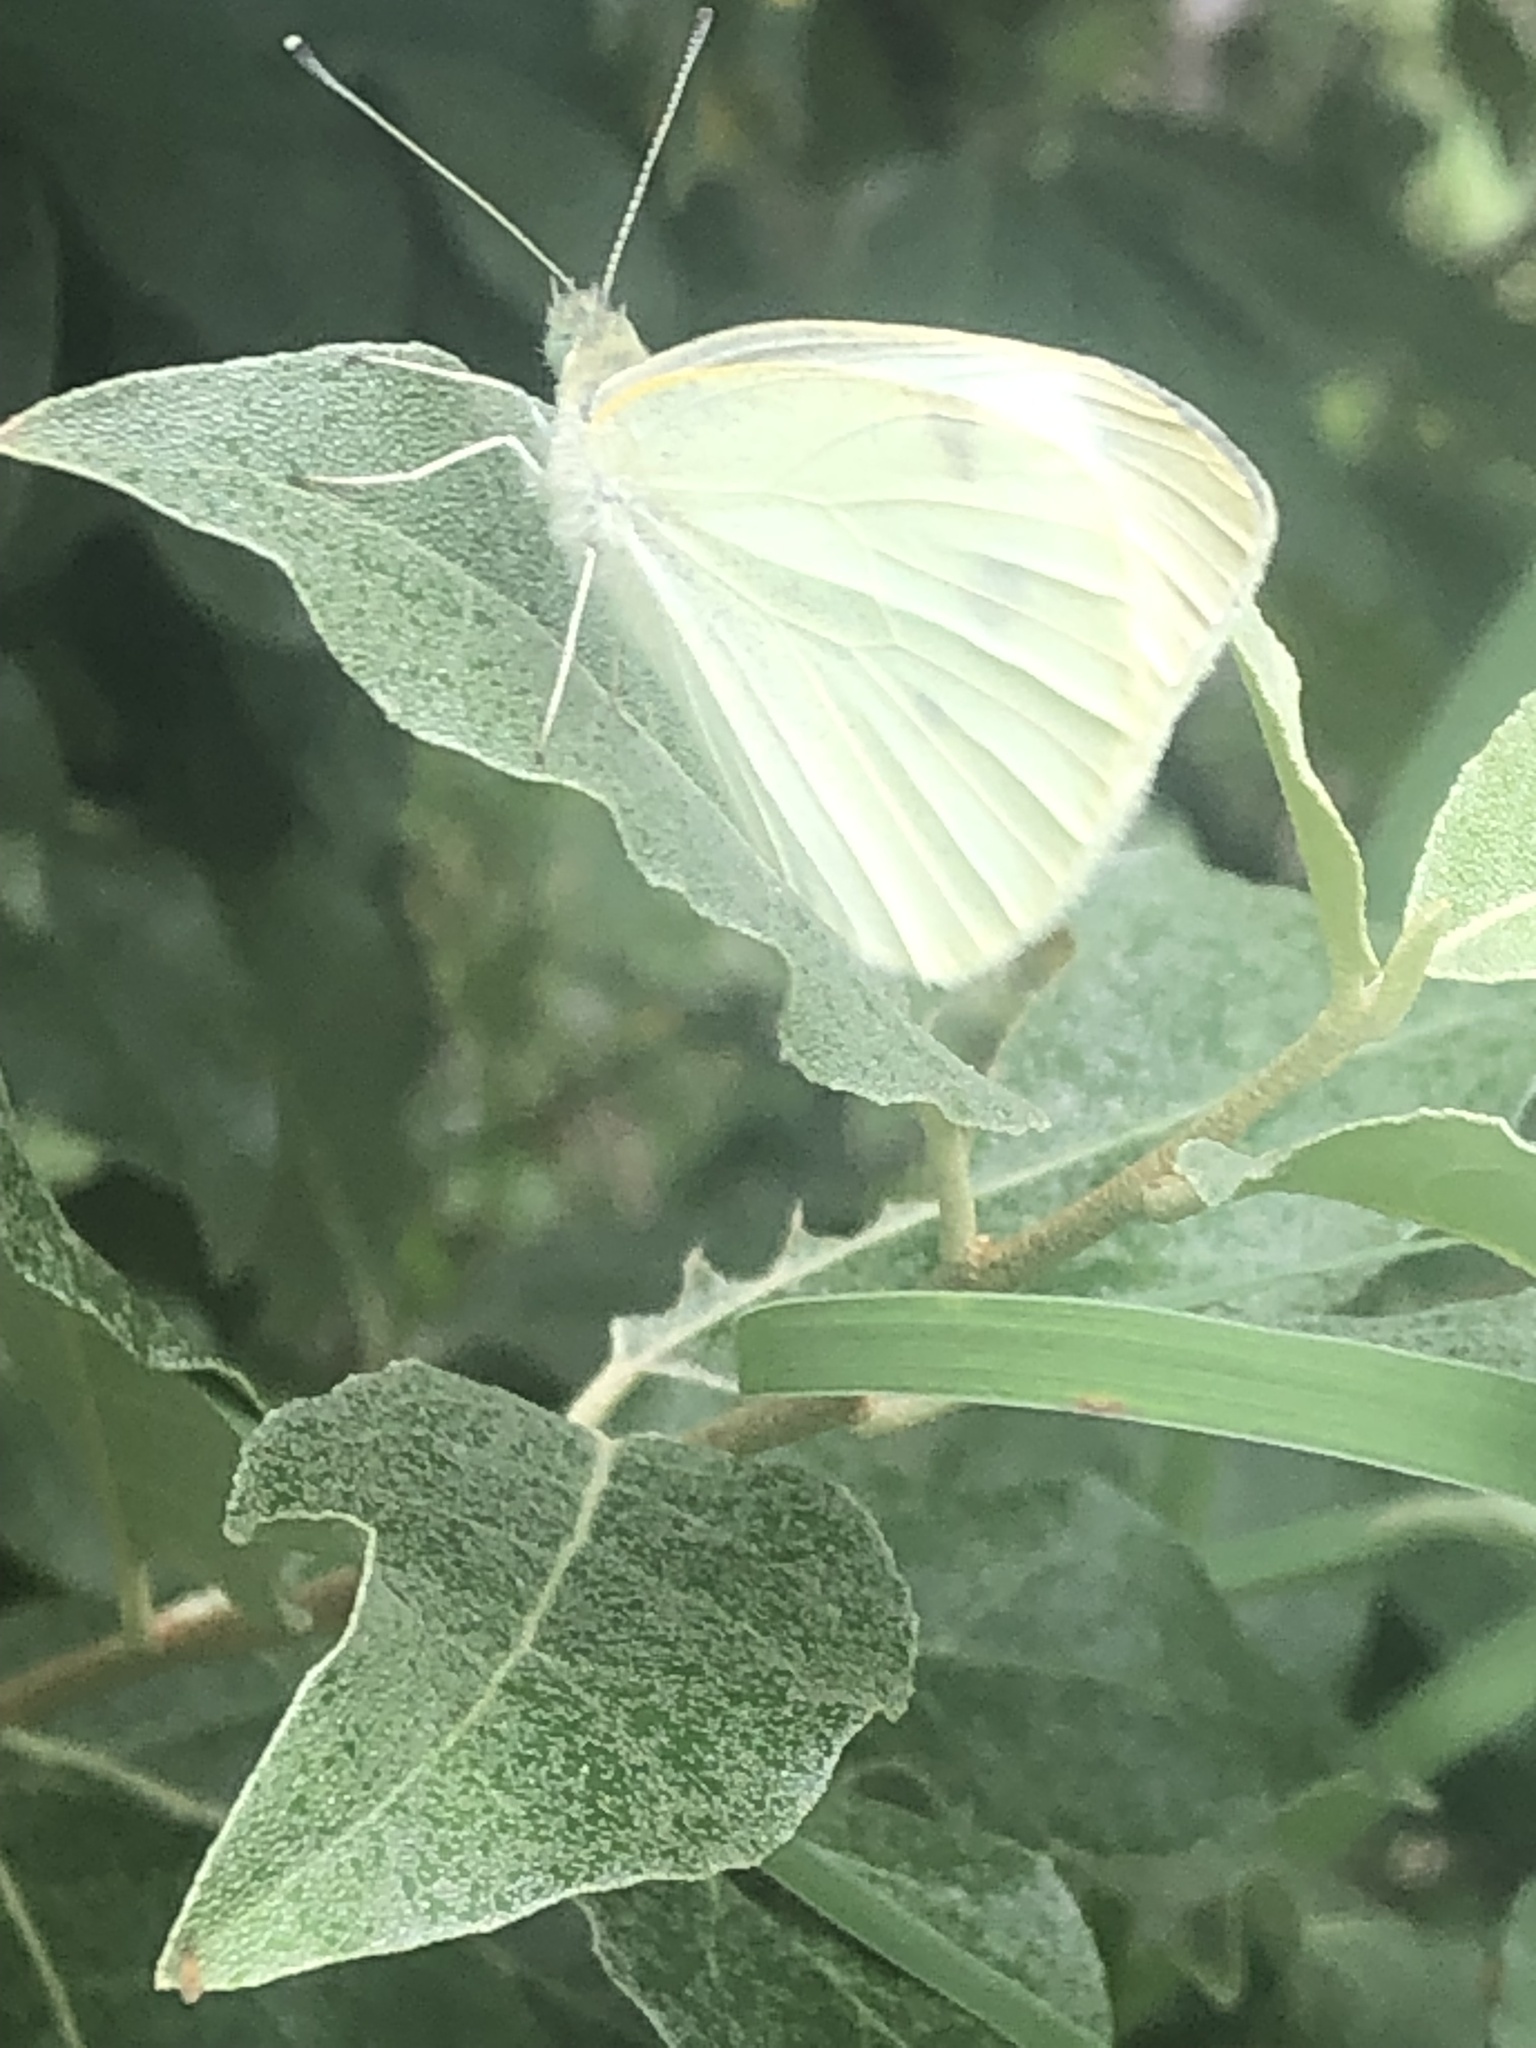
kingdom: Animalia
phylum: Arthropoda
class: Insecta
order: Lepidoptera
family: Pieridae
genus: Pieris
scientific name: Pieris rapae
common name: Small white
